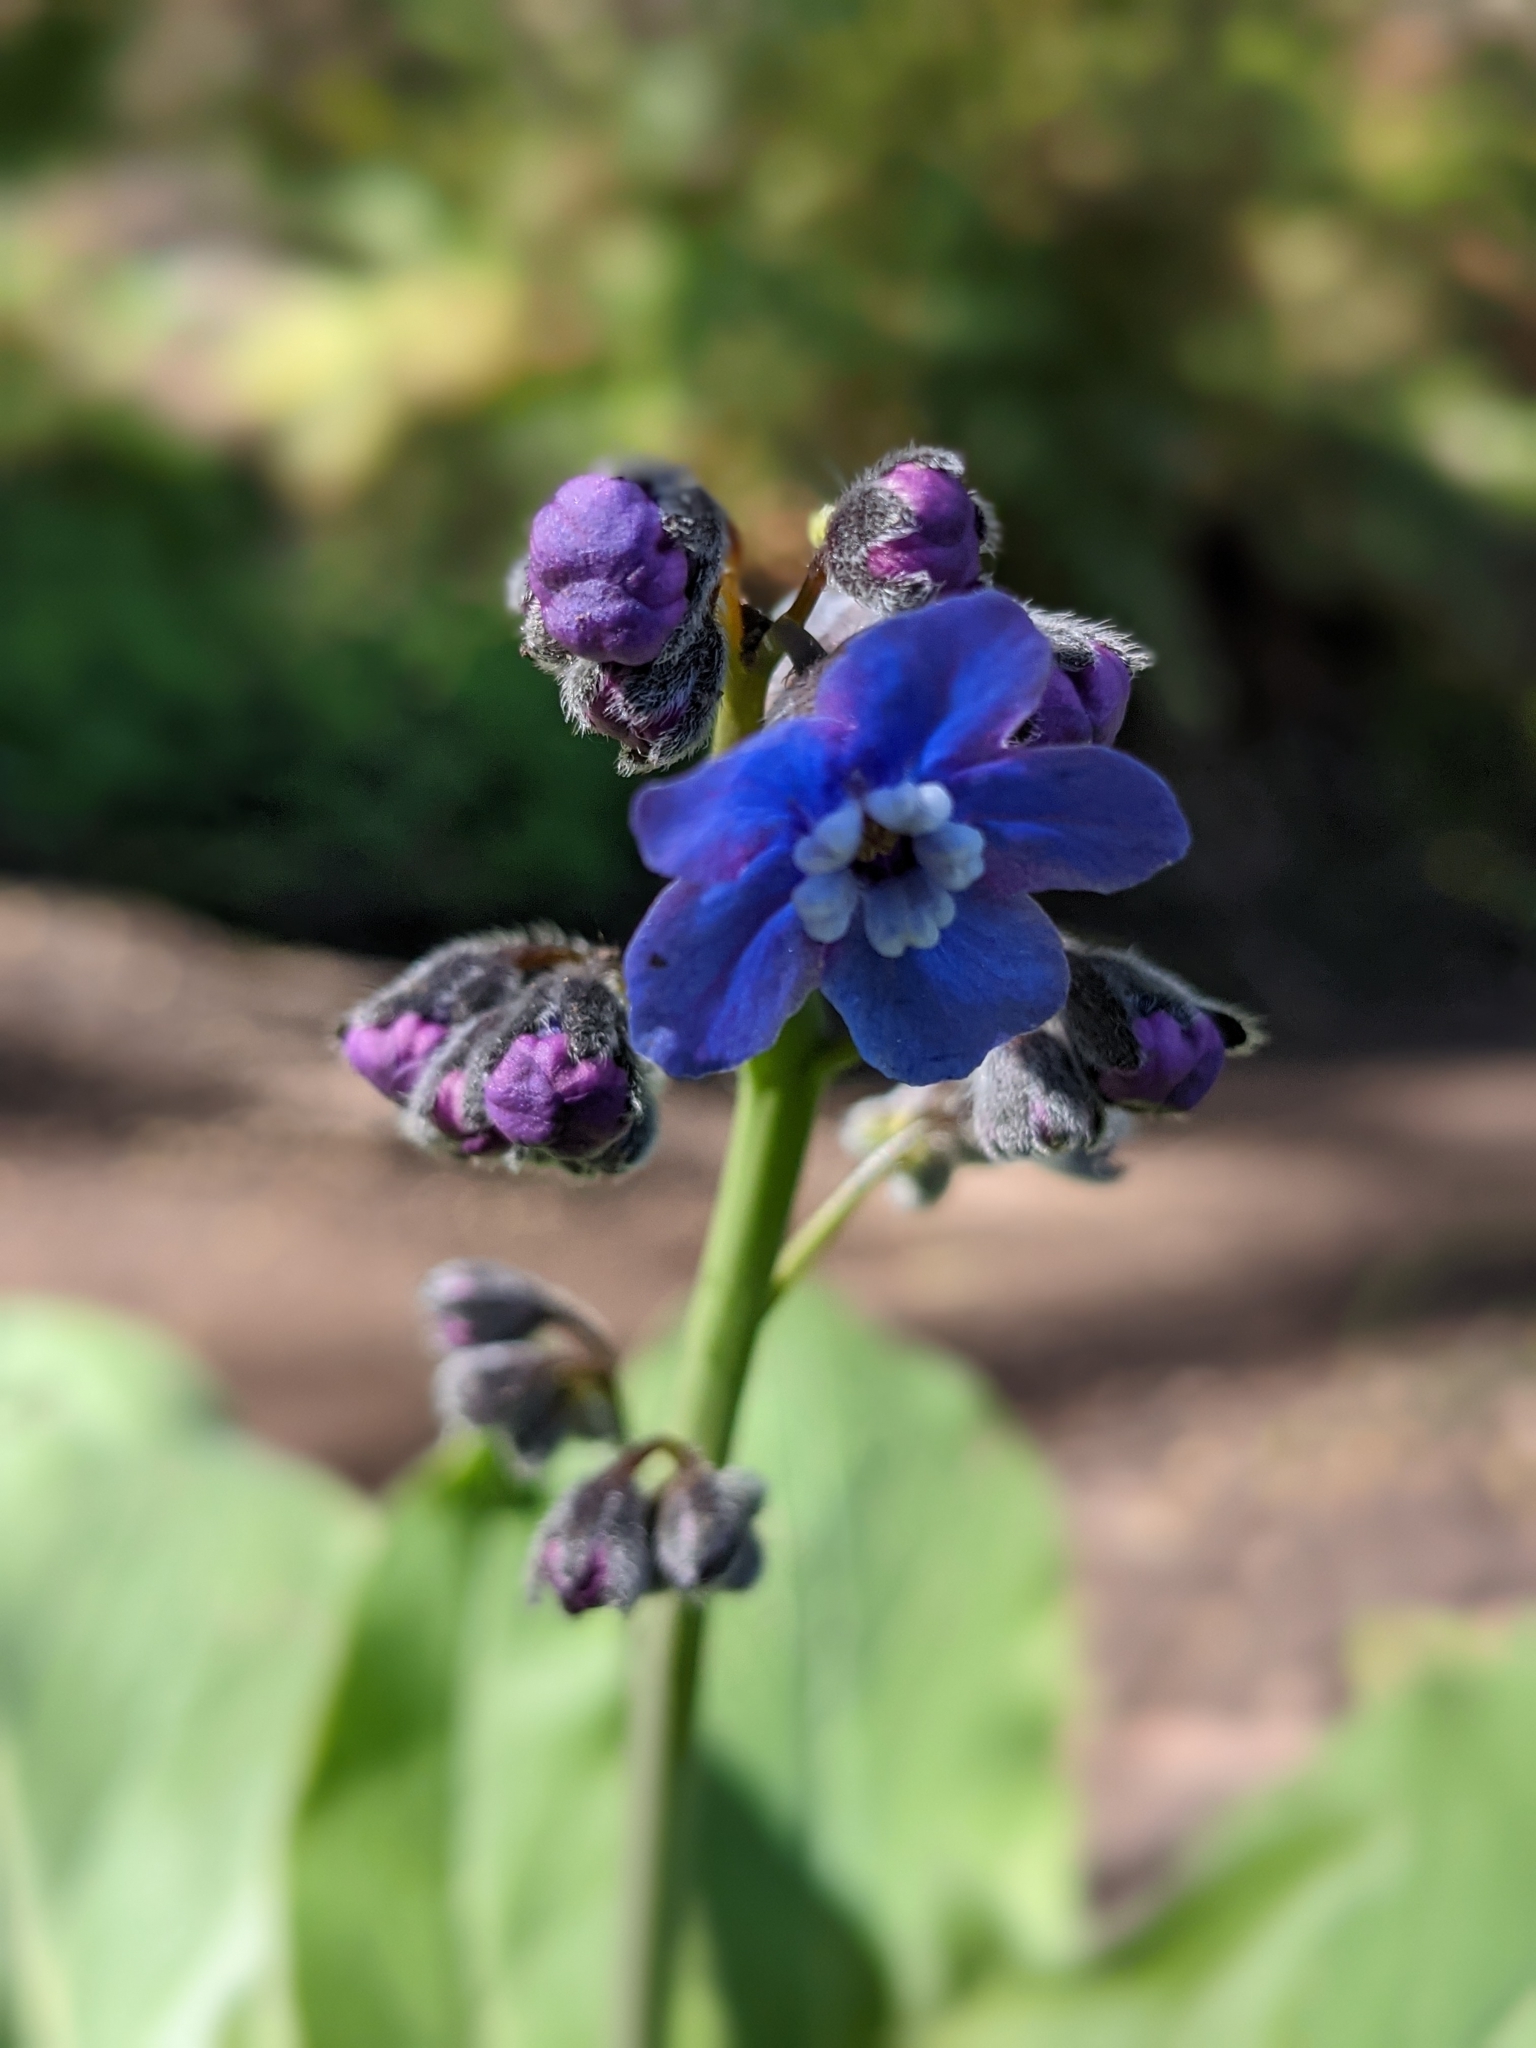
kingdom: Plantae
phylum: Tracheophyta
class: Magnoliopsida
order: Boraginales
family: Boraginaceae
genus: Adelinia
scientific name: Adelinia grande
